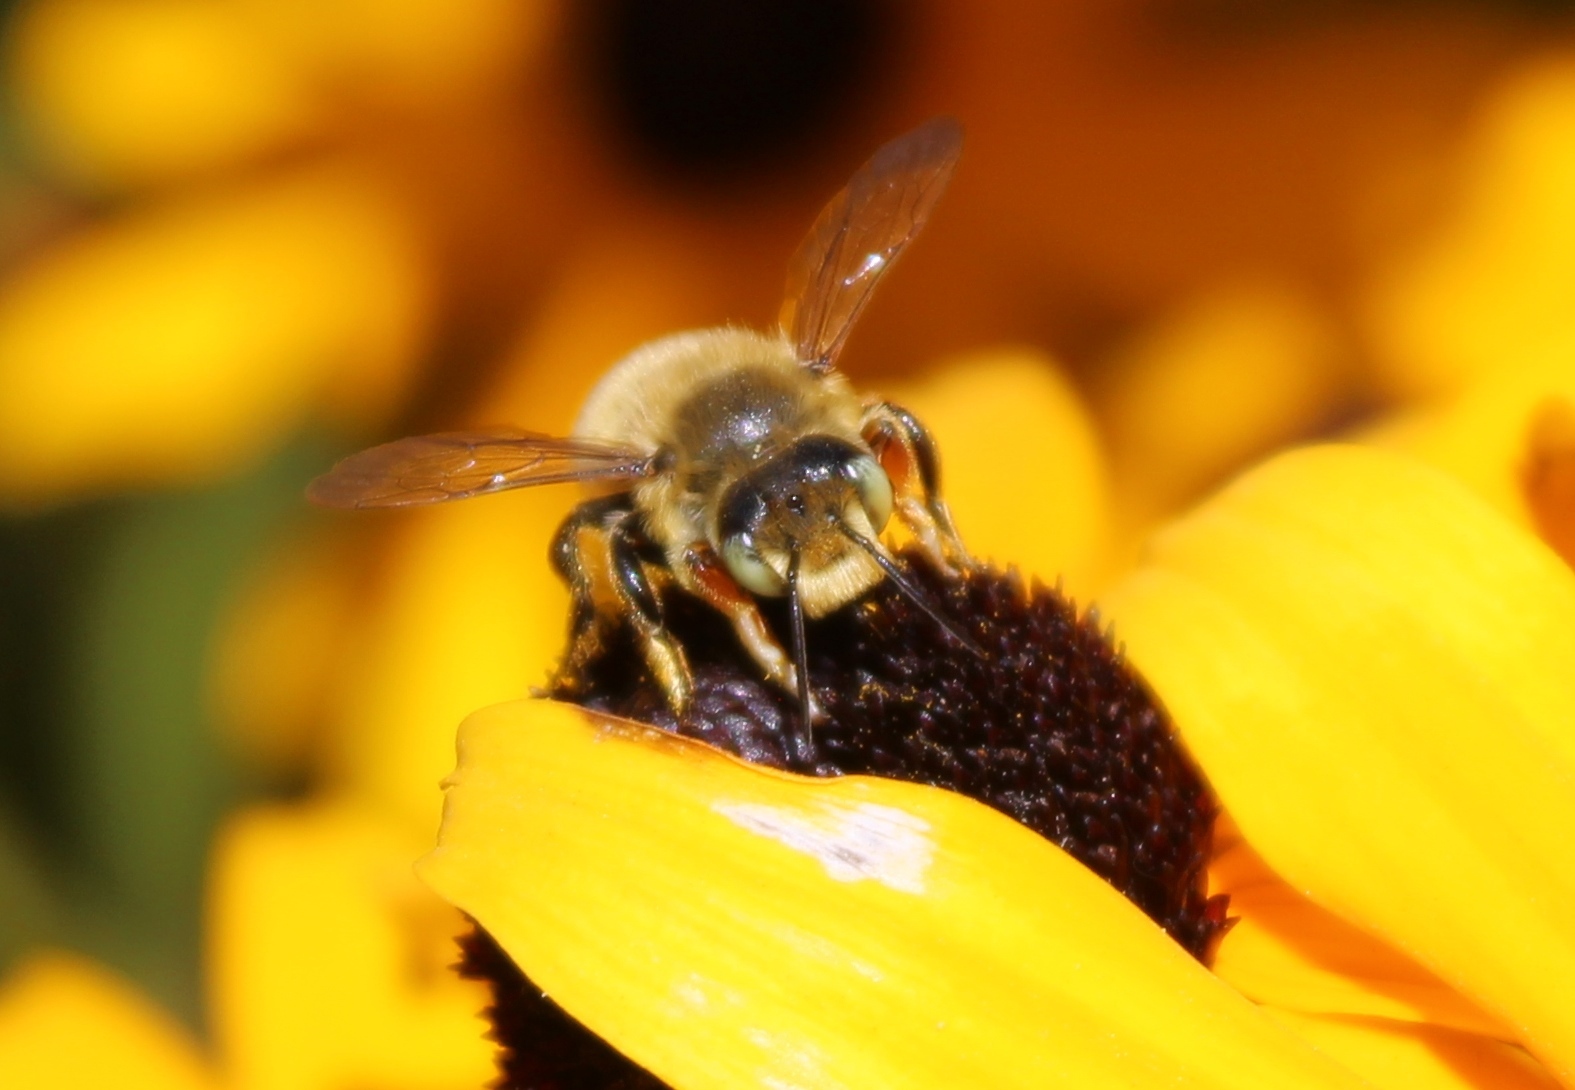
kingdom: Animalia
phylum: Arthropoda
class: Insecta
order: Hymenoptera
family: Megachilidae
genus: Megachile
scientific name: Megachile perihirta
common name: Western leafcutter
